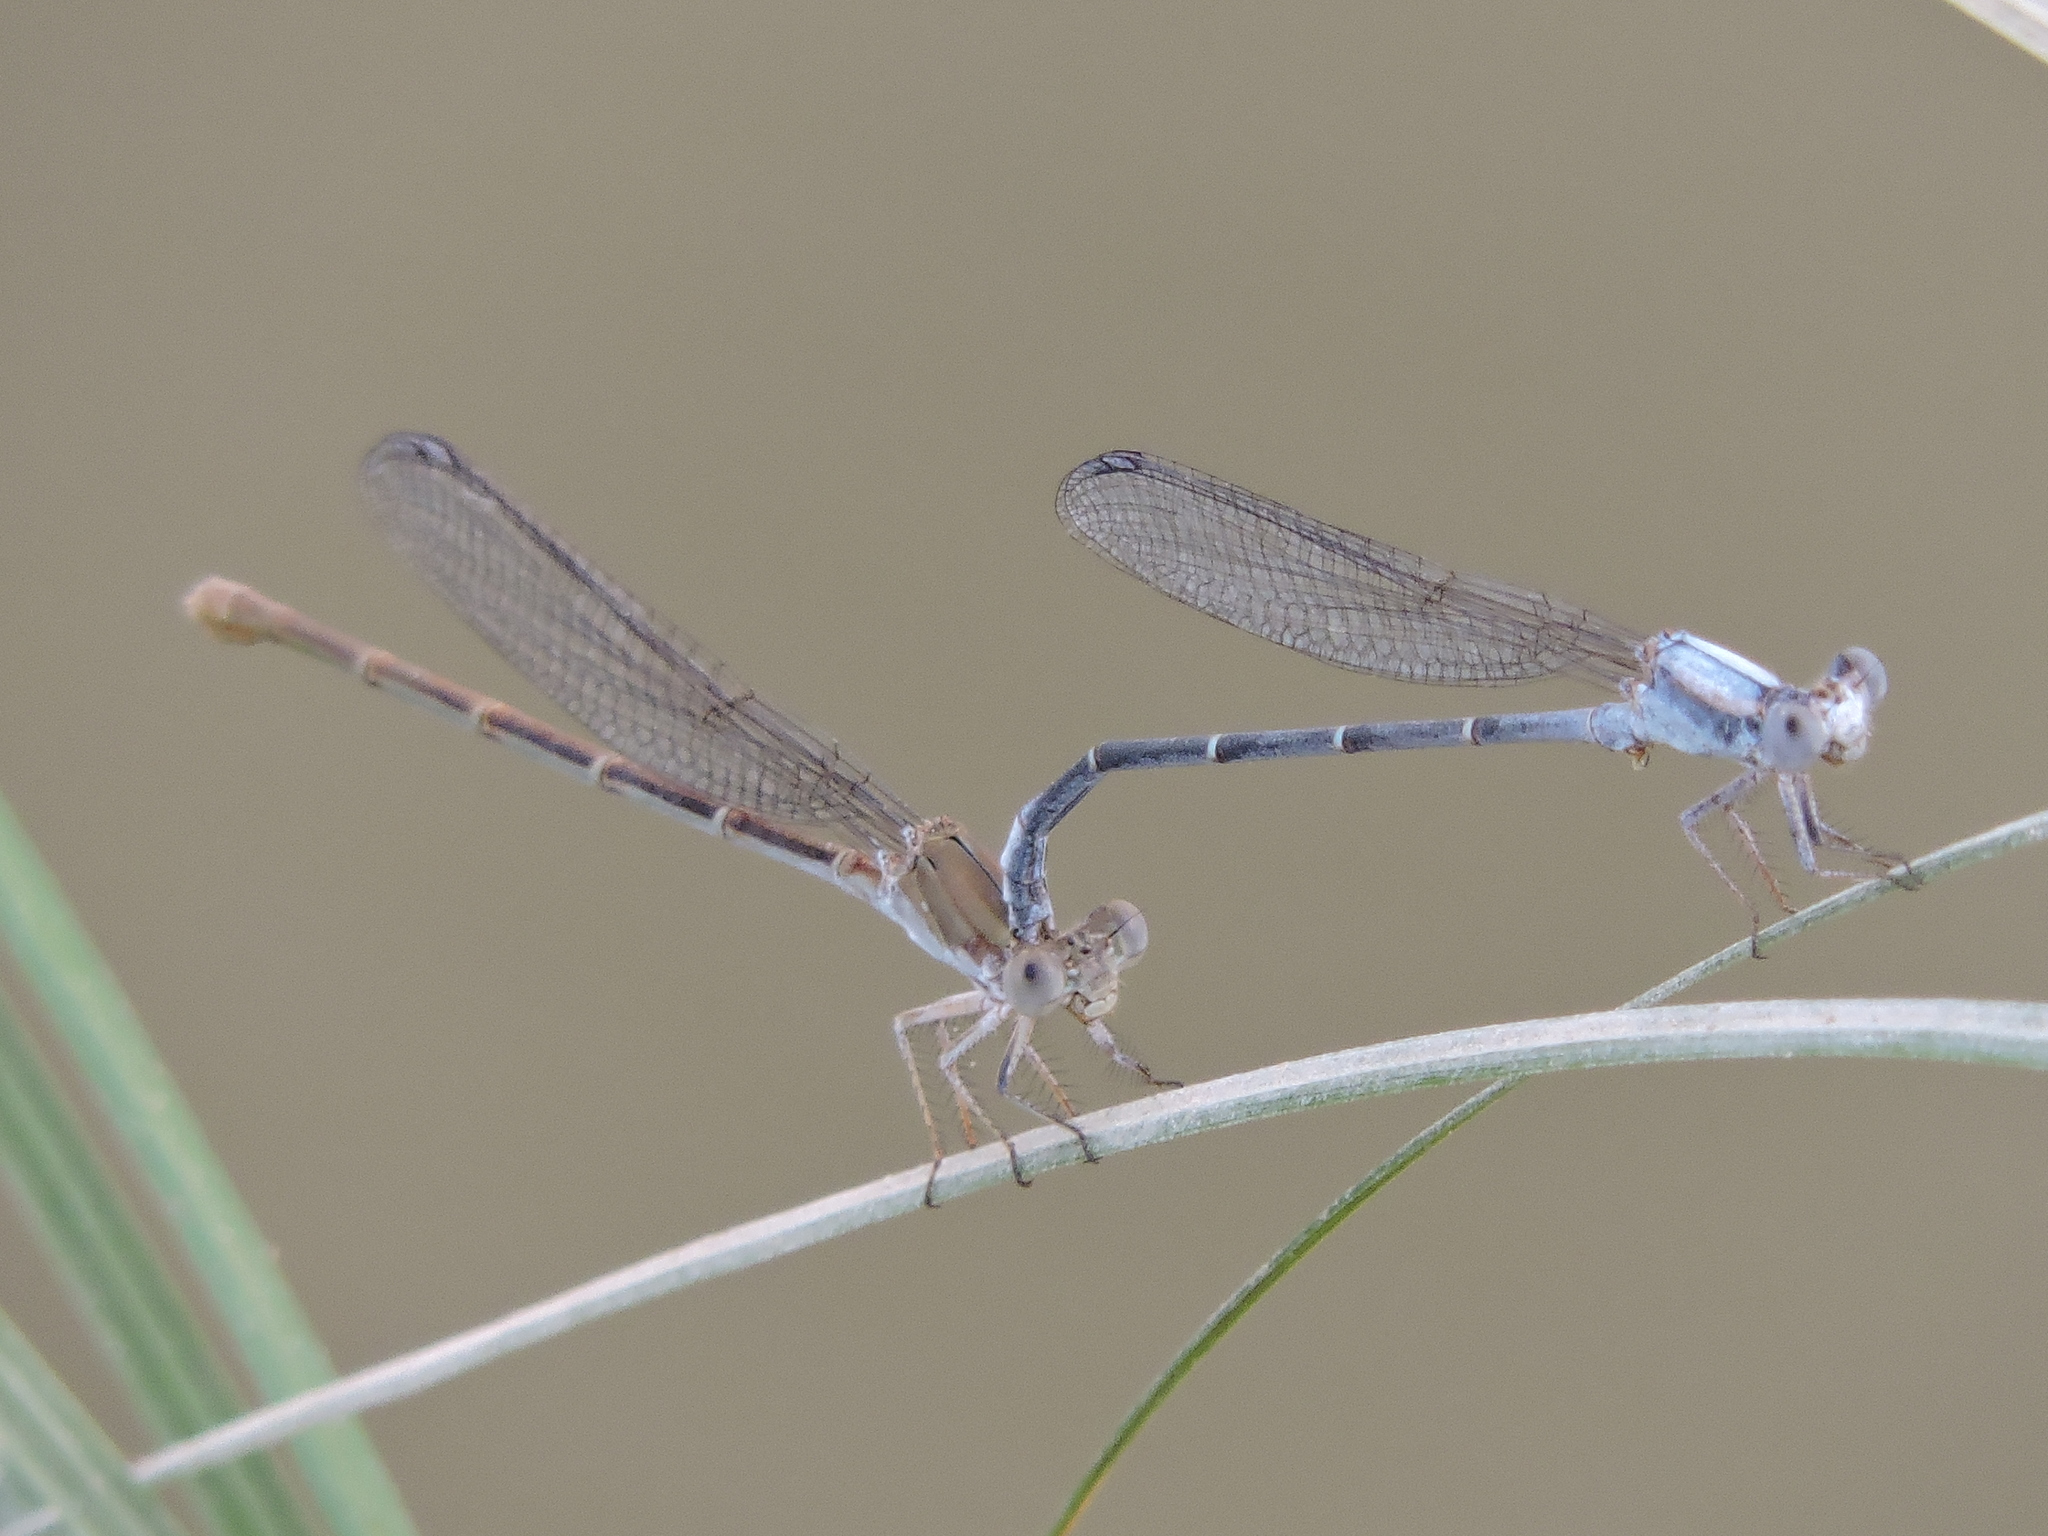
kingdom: Animalia
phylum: Arthropoda
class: Insecta
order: Odonata
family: Coenagrionidae
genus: Argia
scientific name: Argia moesta
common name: Powdered dancer
